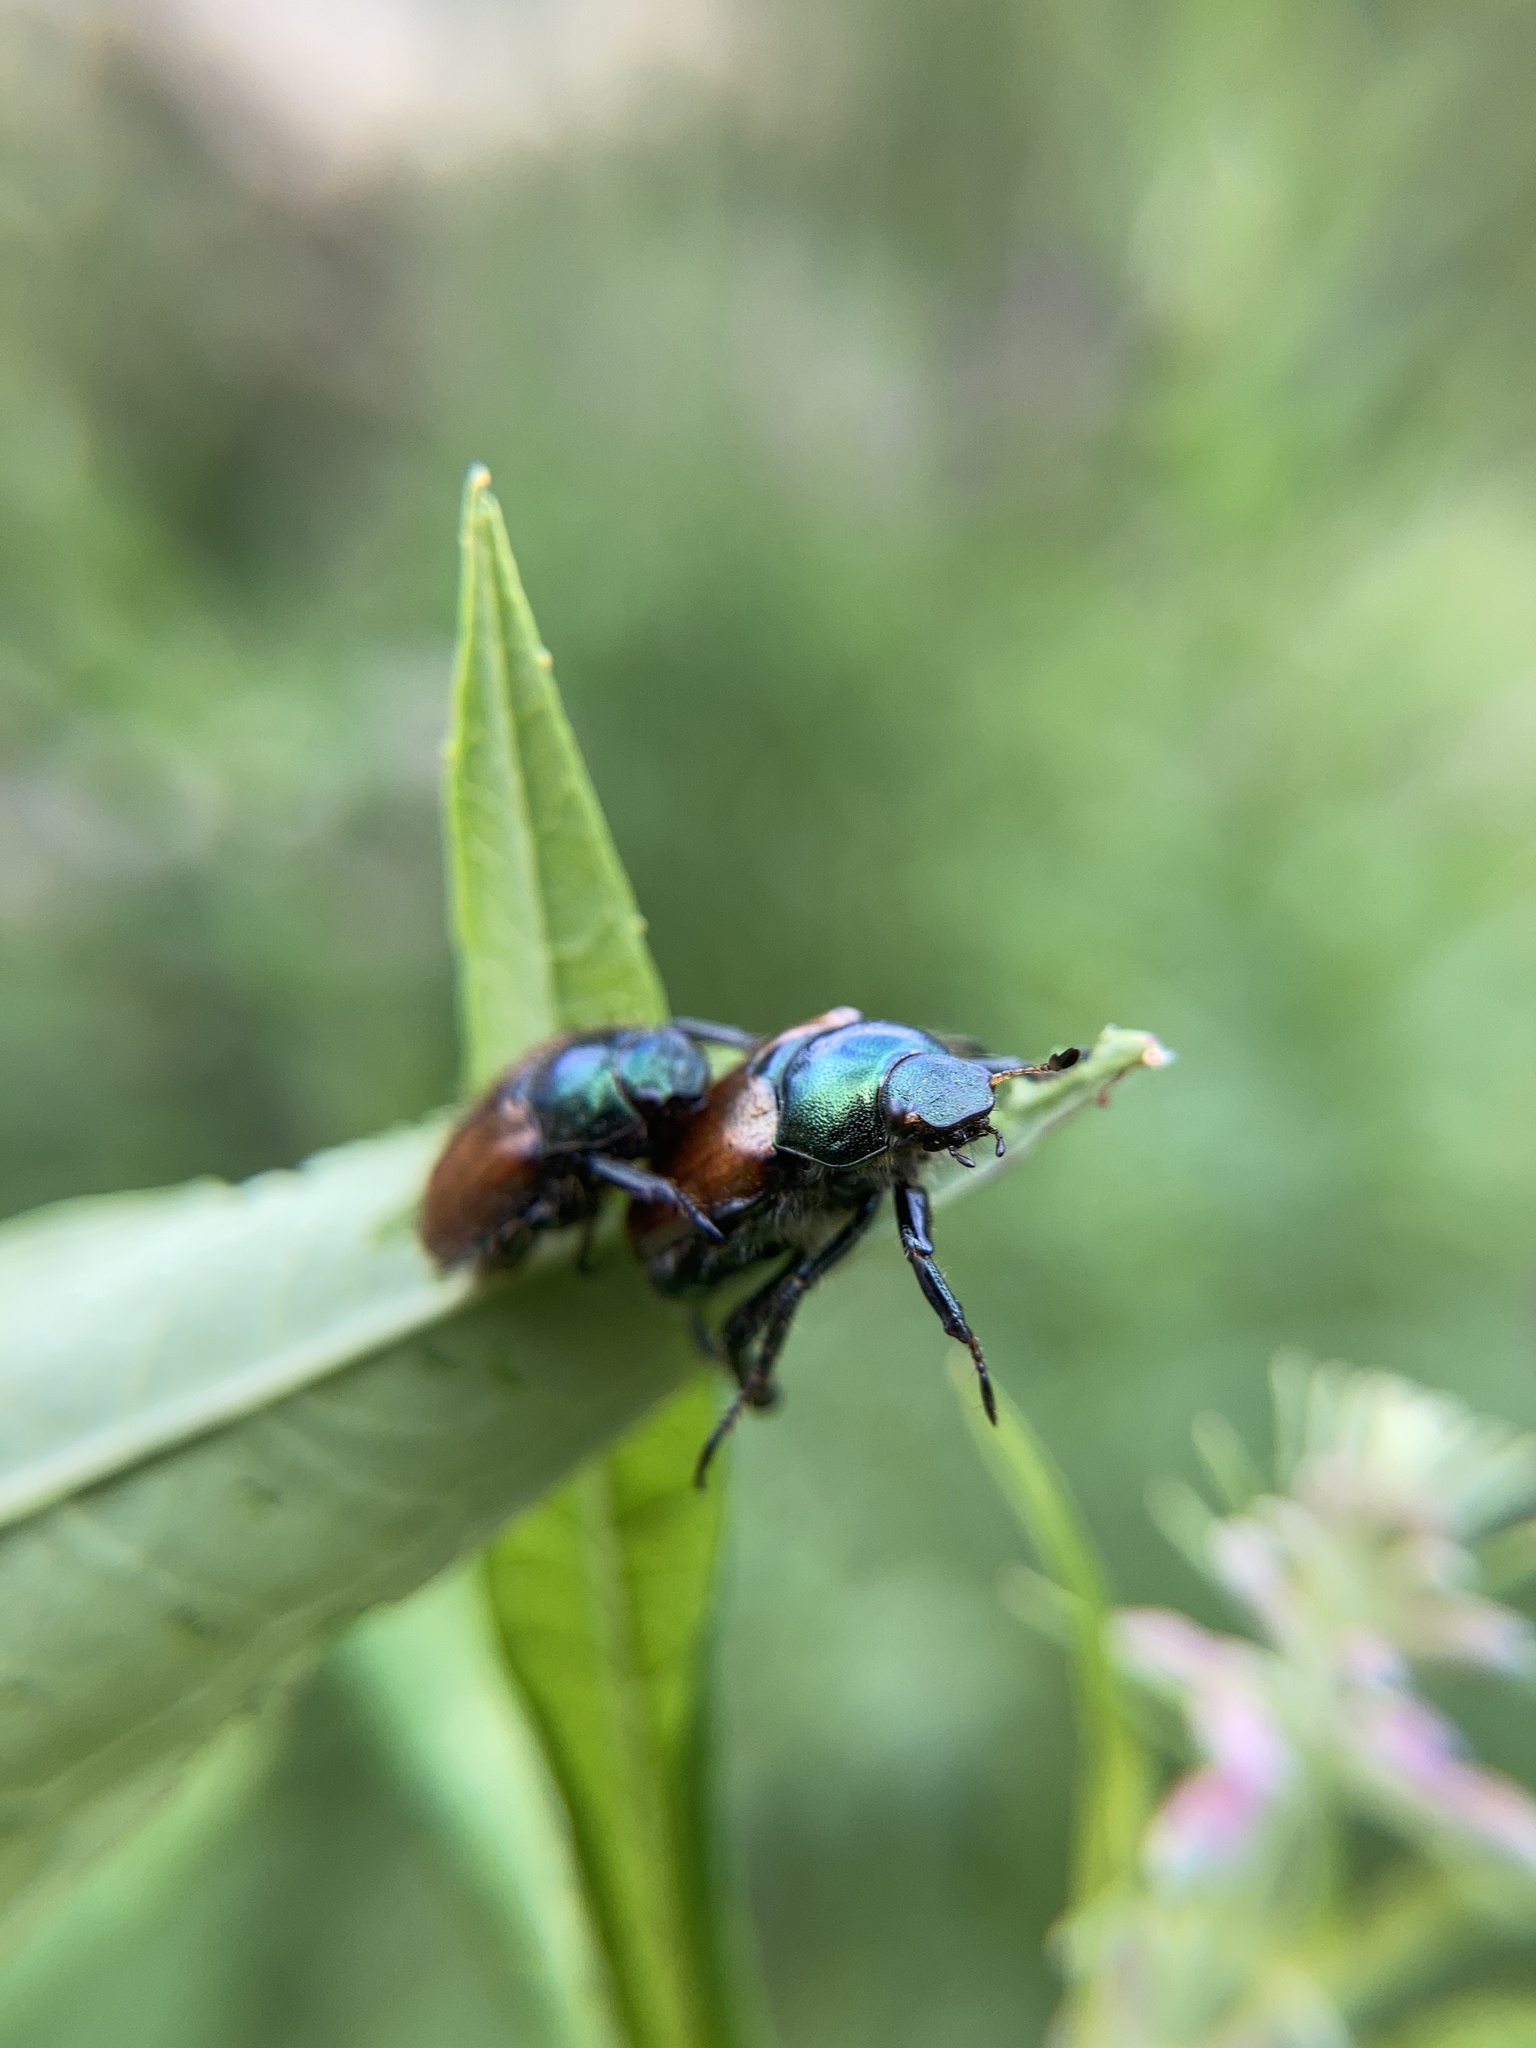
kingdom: Animalia
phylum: Arthropoda
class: Insecta
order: Coleoptera
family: Scarabaeidae
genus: Phyllopertha
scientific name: Phyllopertha horticola
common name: Garden chafer
